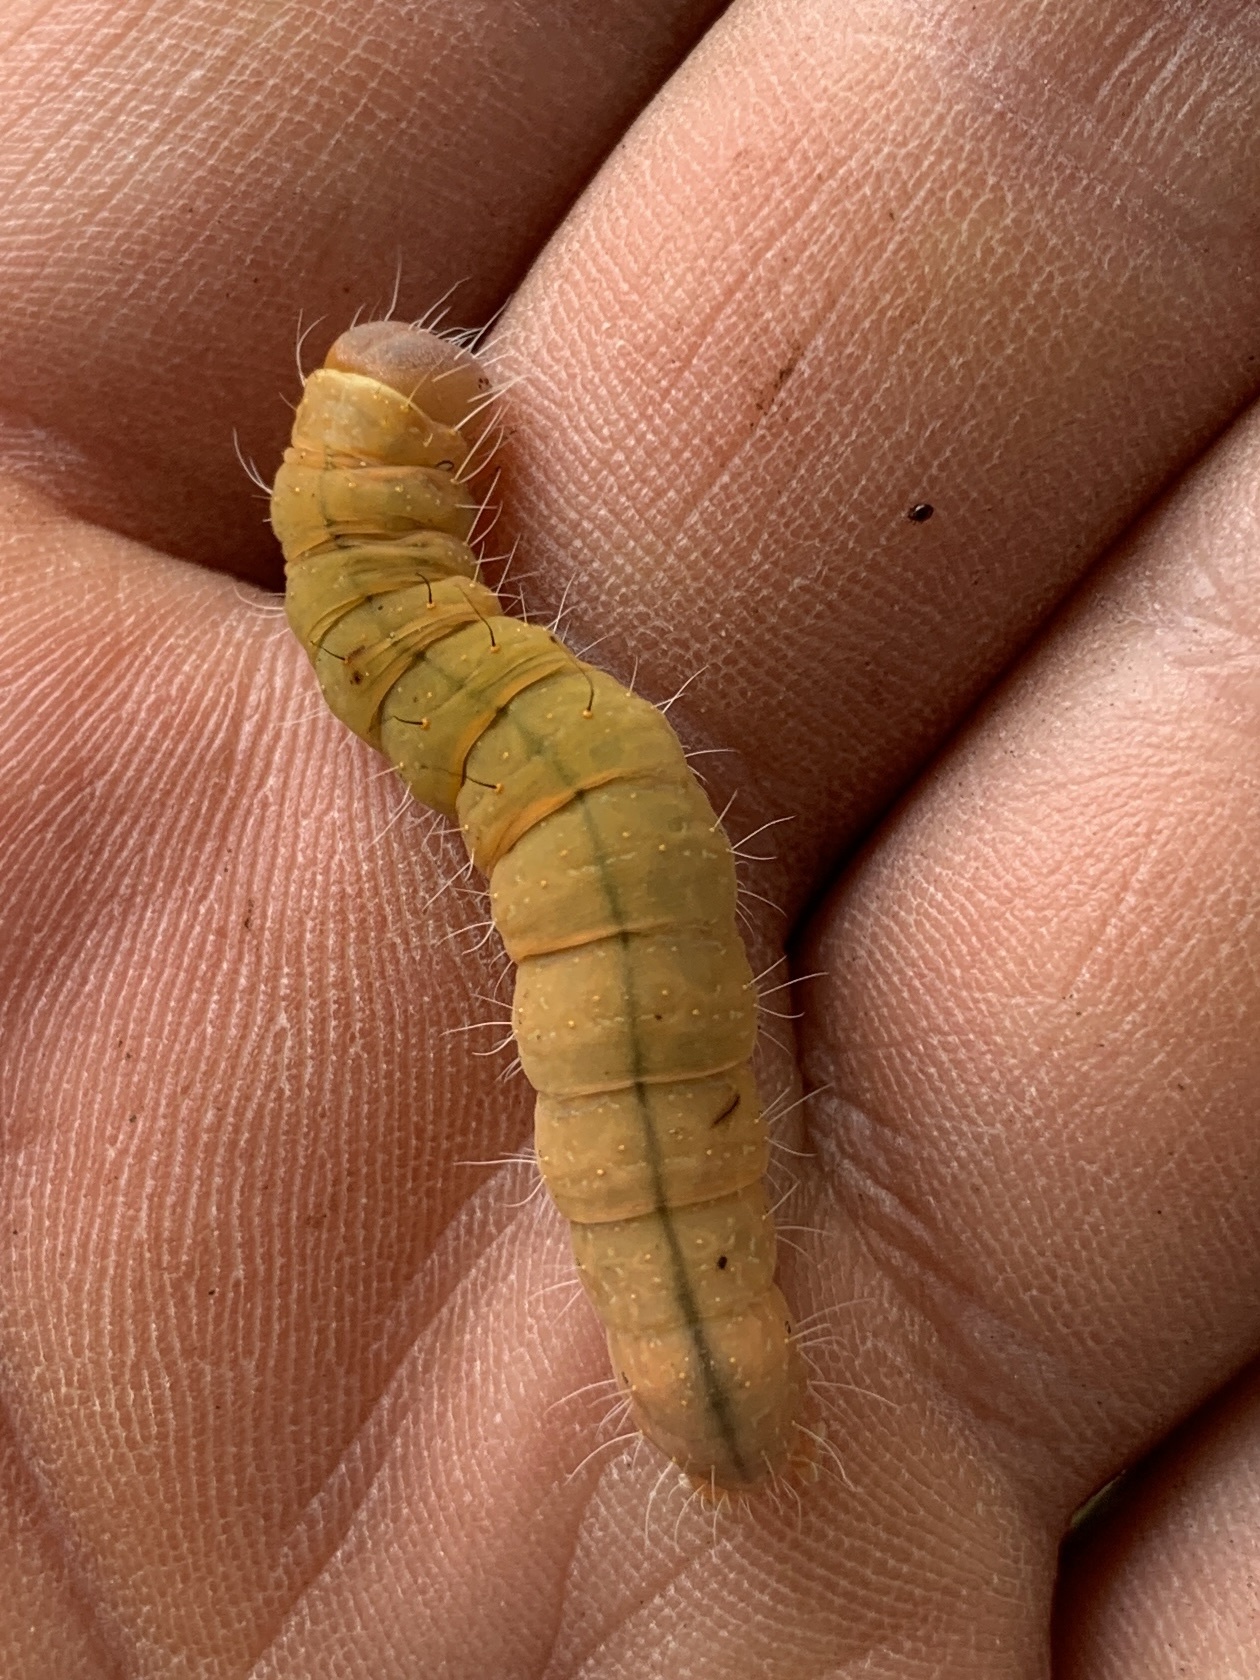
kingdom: Animalia
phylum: Arthropoda
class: Insecta
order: Lepidoptera
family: Noctuidae
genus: Acronicta
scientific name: Acronicta afflicta
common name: Afflicted dagger moth
